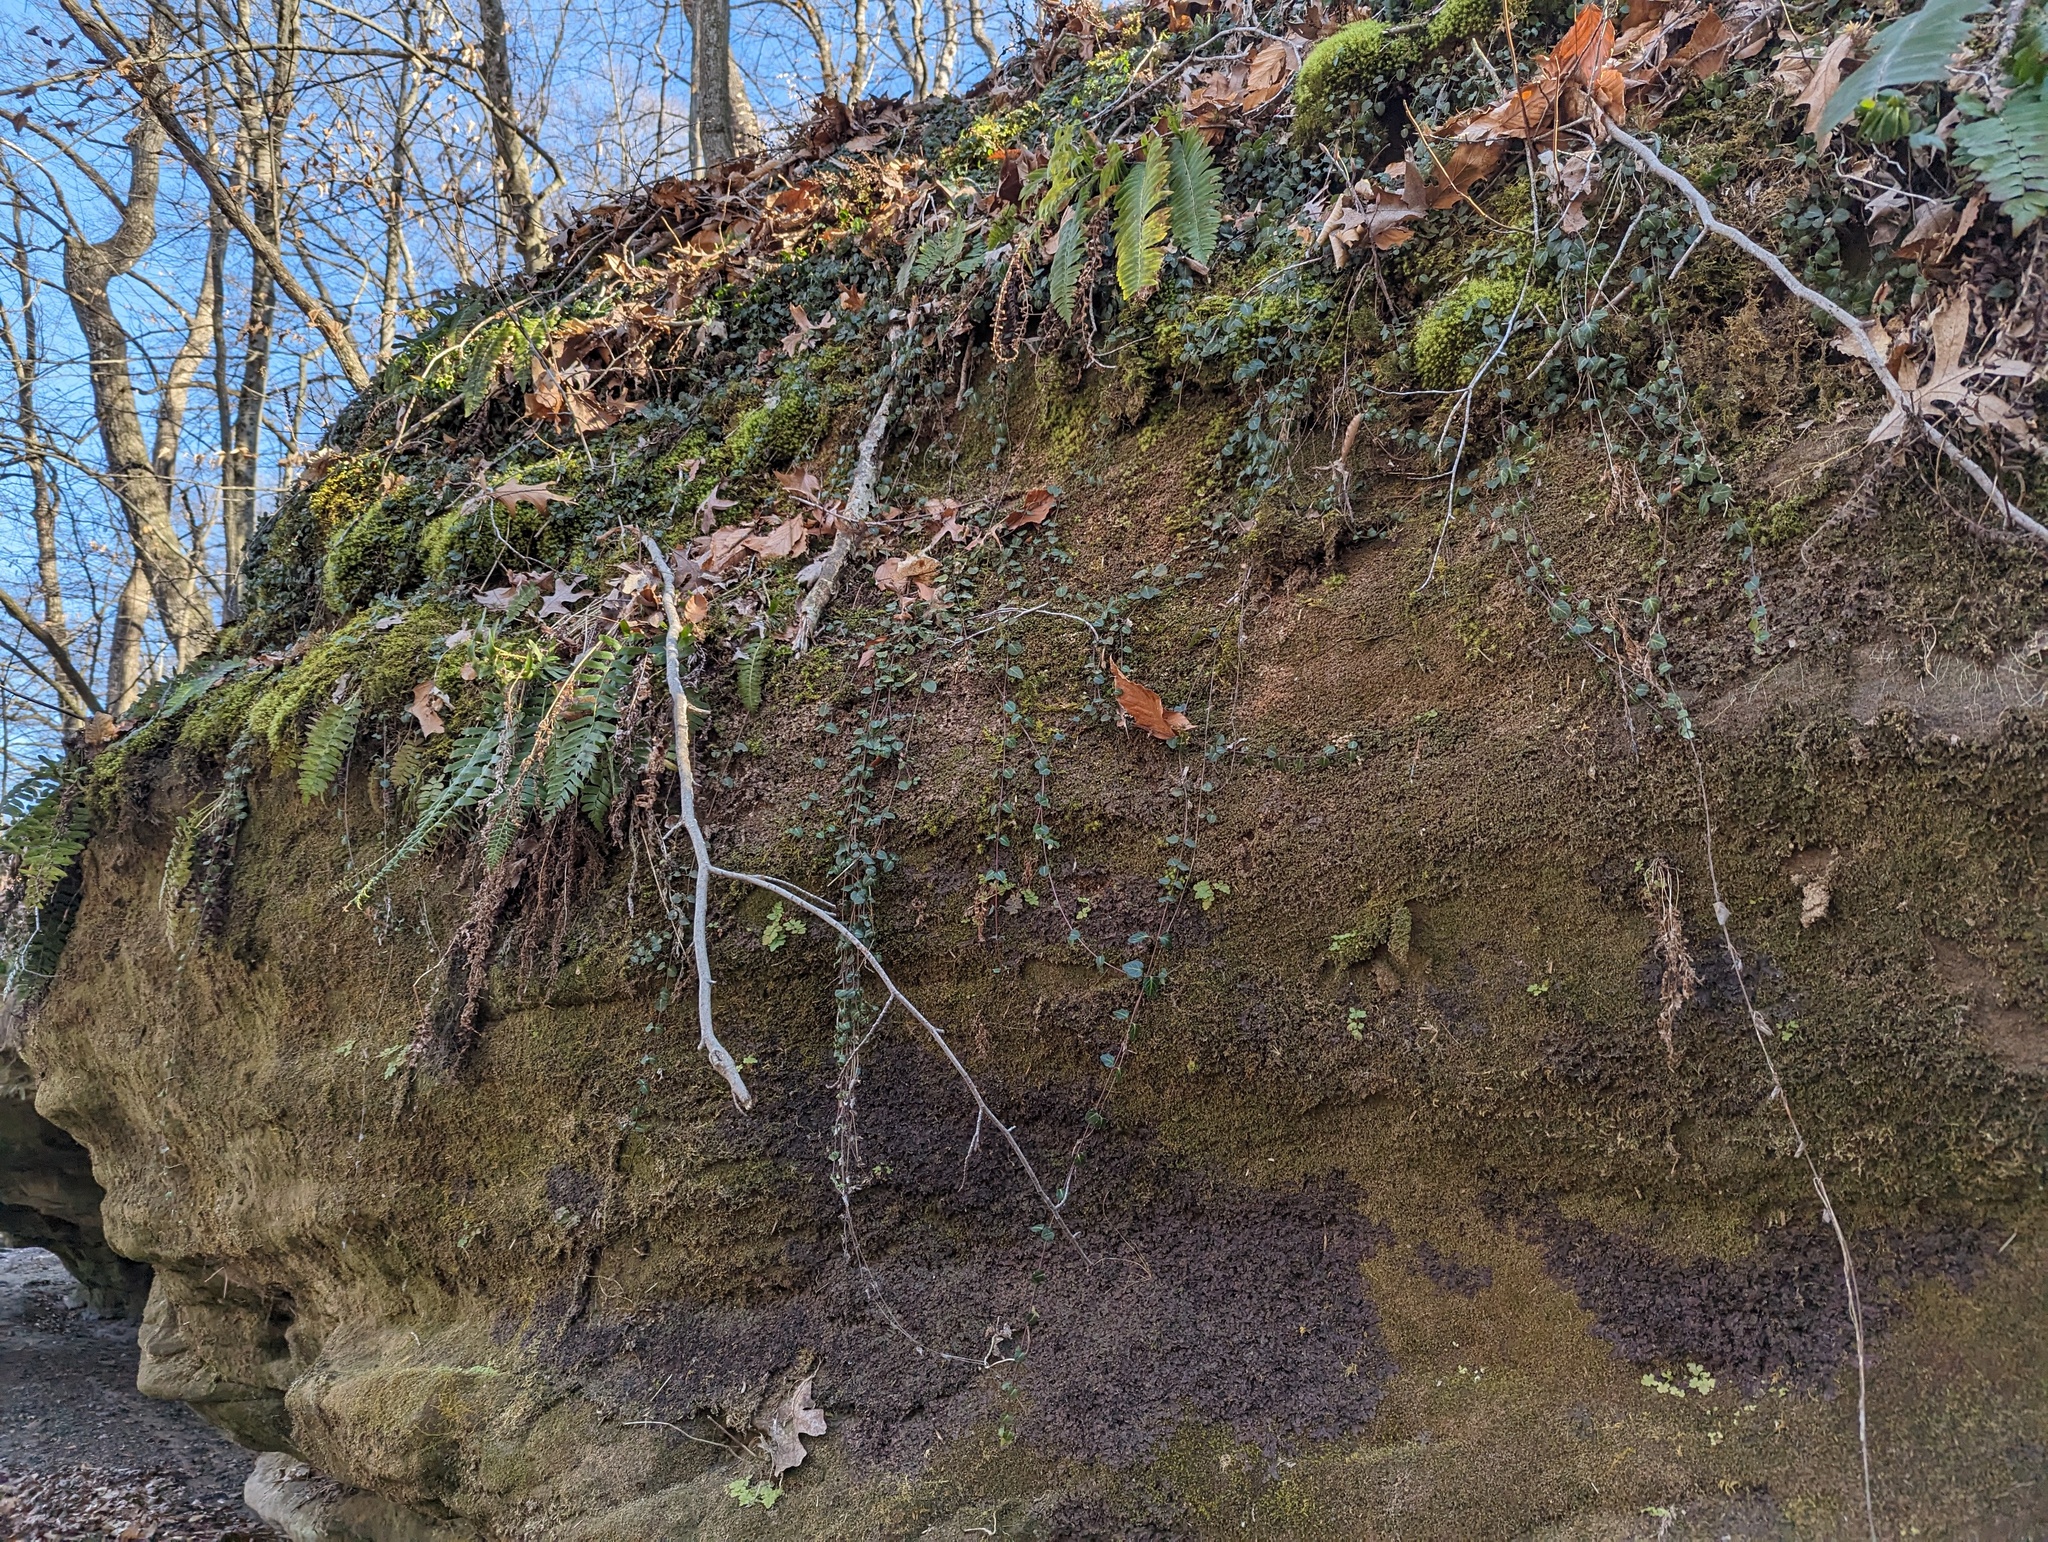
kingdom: Plantae
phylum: Tracheophyta
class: Magnoliopsida
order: Gentianales
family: Rubiaceae
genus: Mitchella
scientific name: Mitchella repens
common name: Partridge-berry
